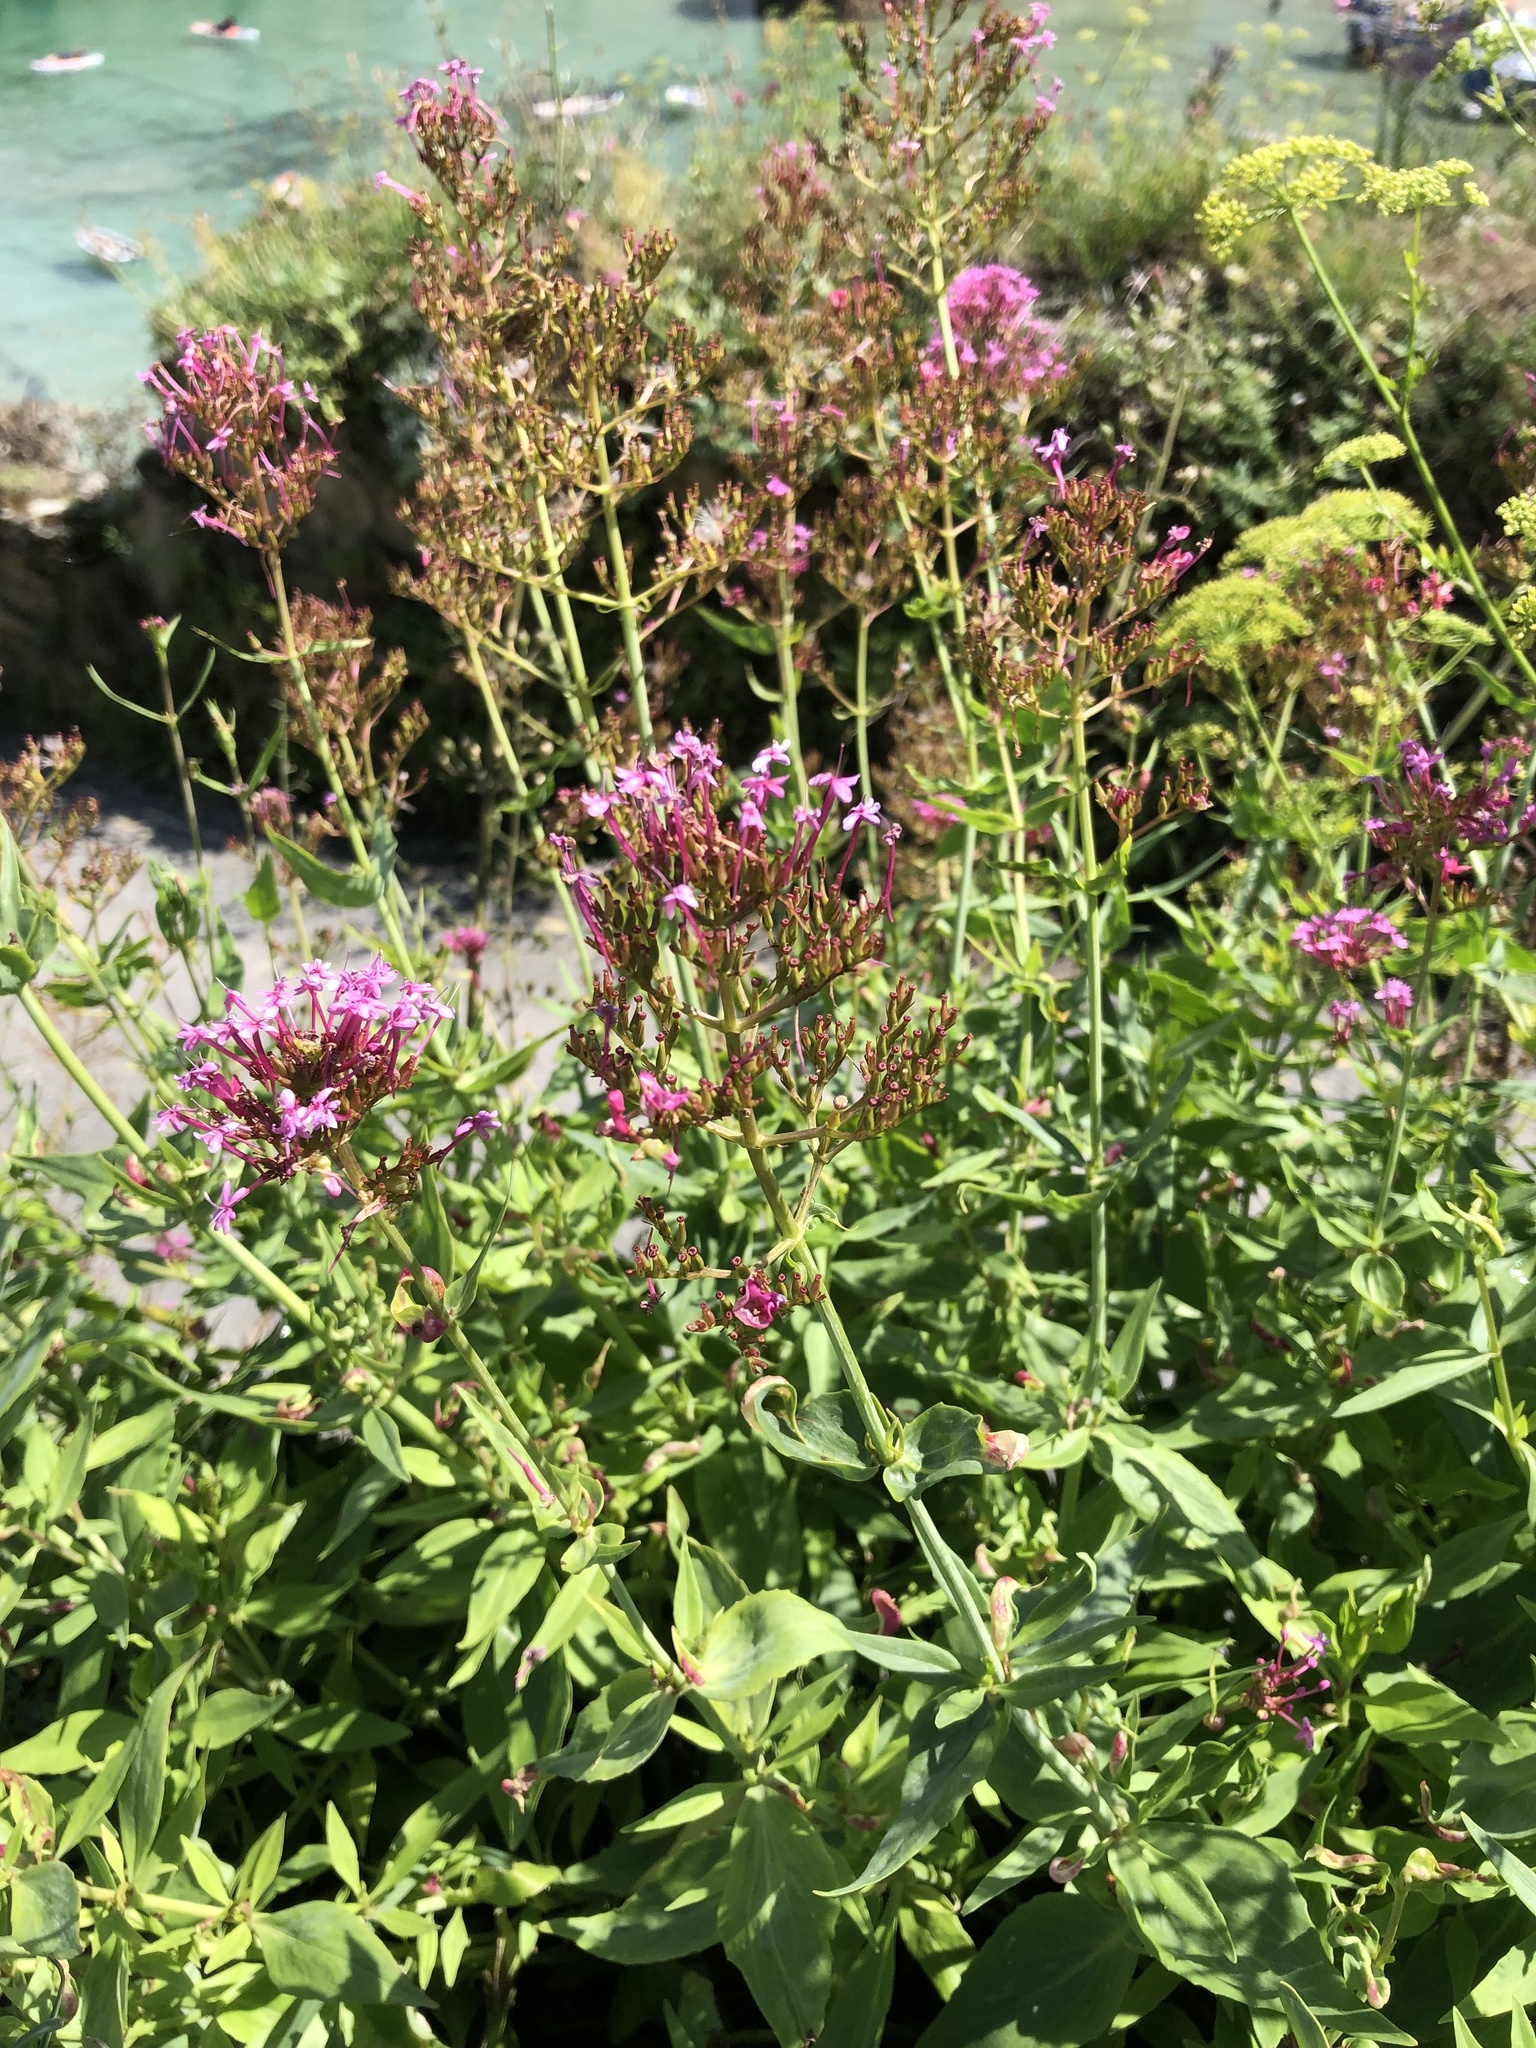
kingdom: Plantae
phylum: Tracheophyta
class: Magnoliopsida
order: Dipsacales
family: Caprifoliaceae
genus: Centranthus
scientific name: Centranthus ruber
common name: Red valerian
